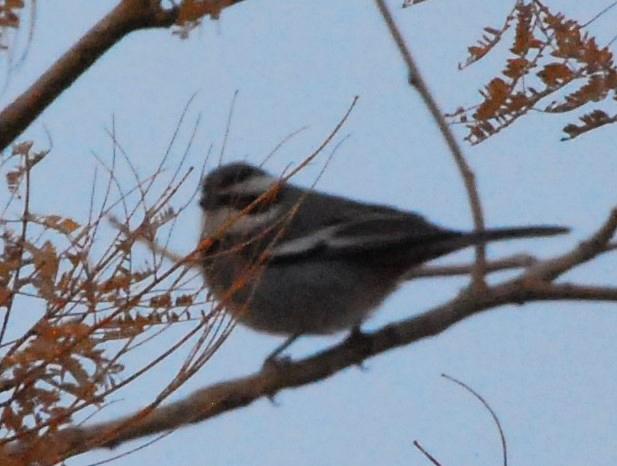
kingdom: Animalia
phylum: Chordata
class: Aves
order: Passeriformes
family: Thraupidae
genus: Microspingus
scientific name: Microspingus torquatus
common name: Ringed warbling-finch
